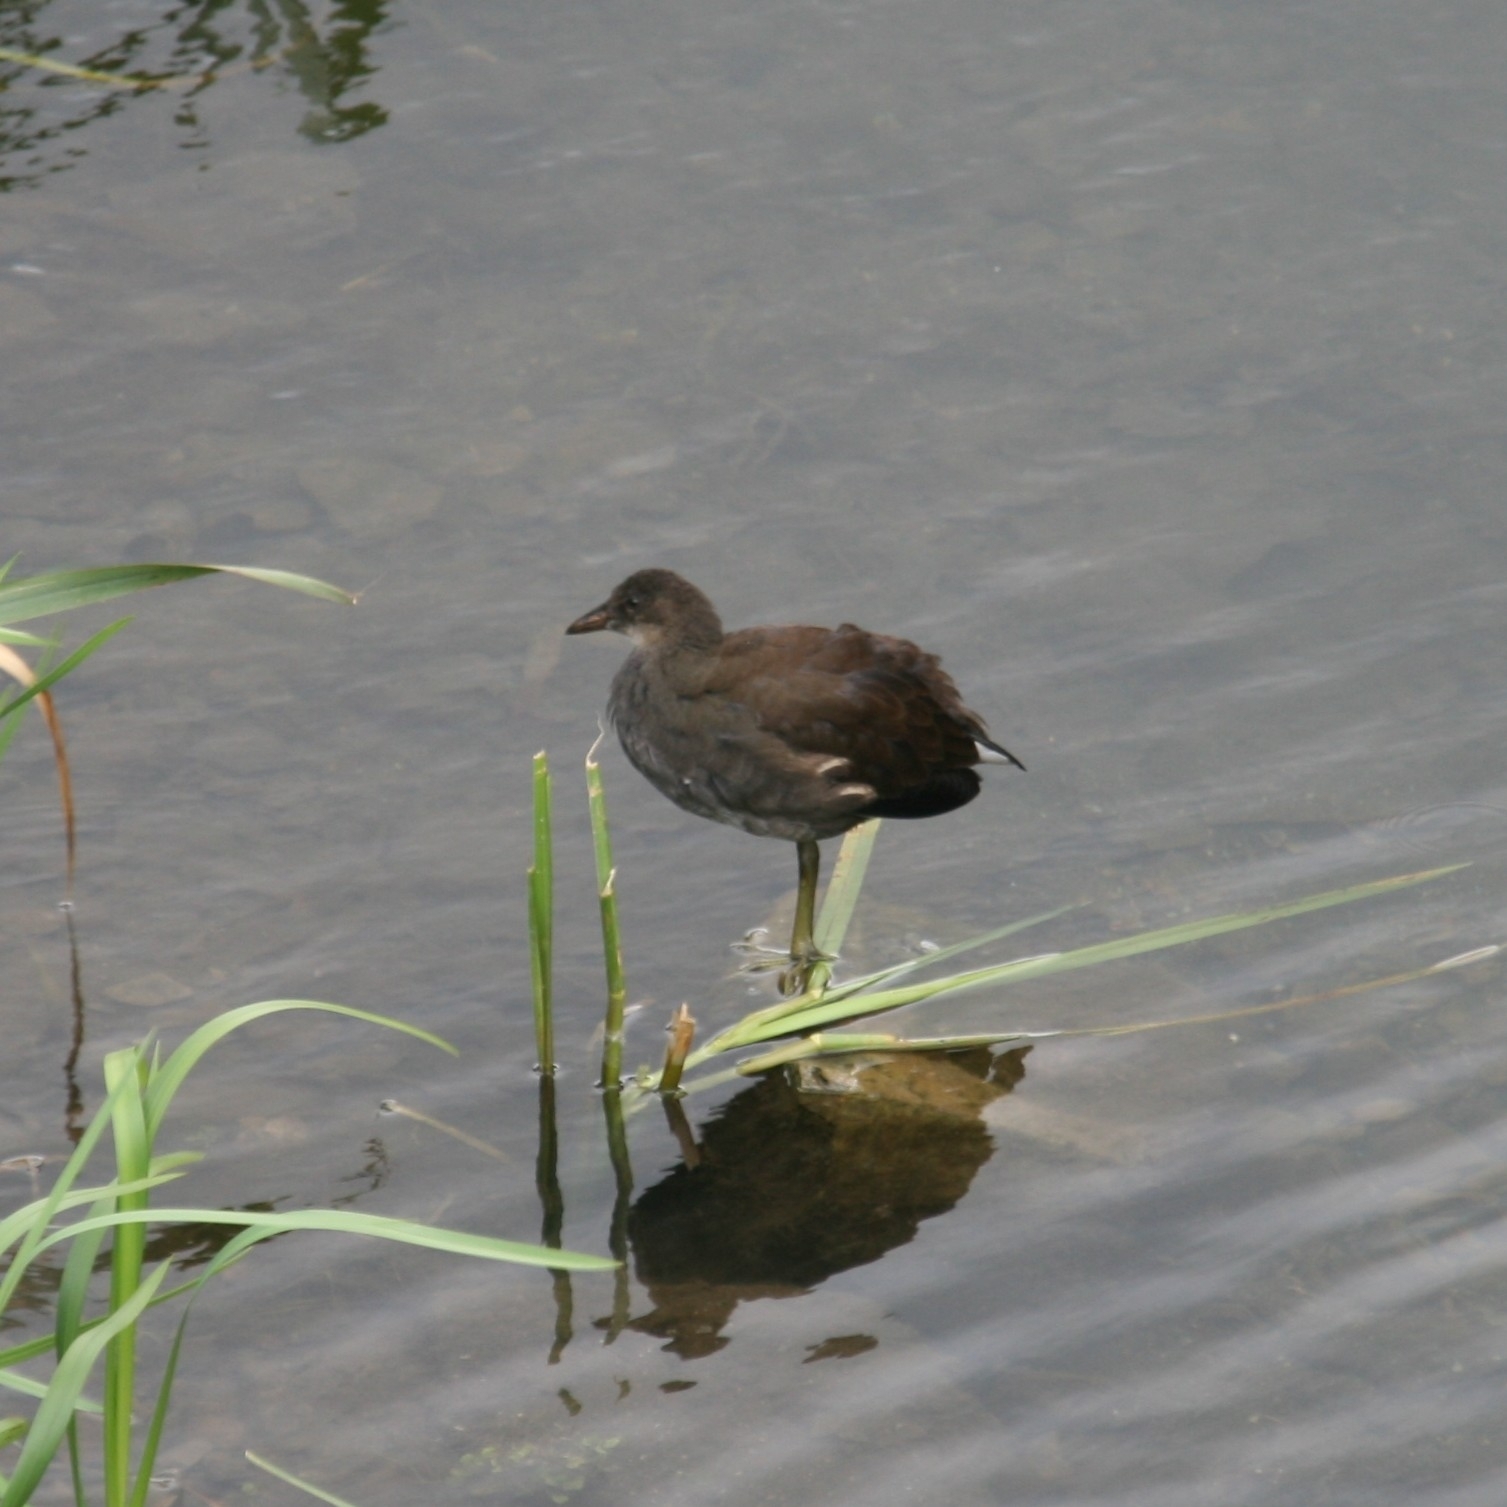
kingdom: Animalia
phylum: Chordata
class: Aves
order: Gruiformes
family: Rallidae
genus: Gallinula
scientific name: Gallinula chloropus
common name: Common moorhen
